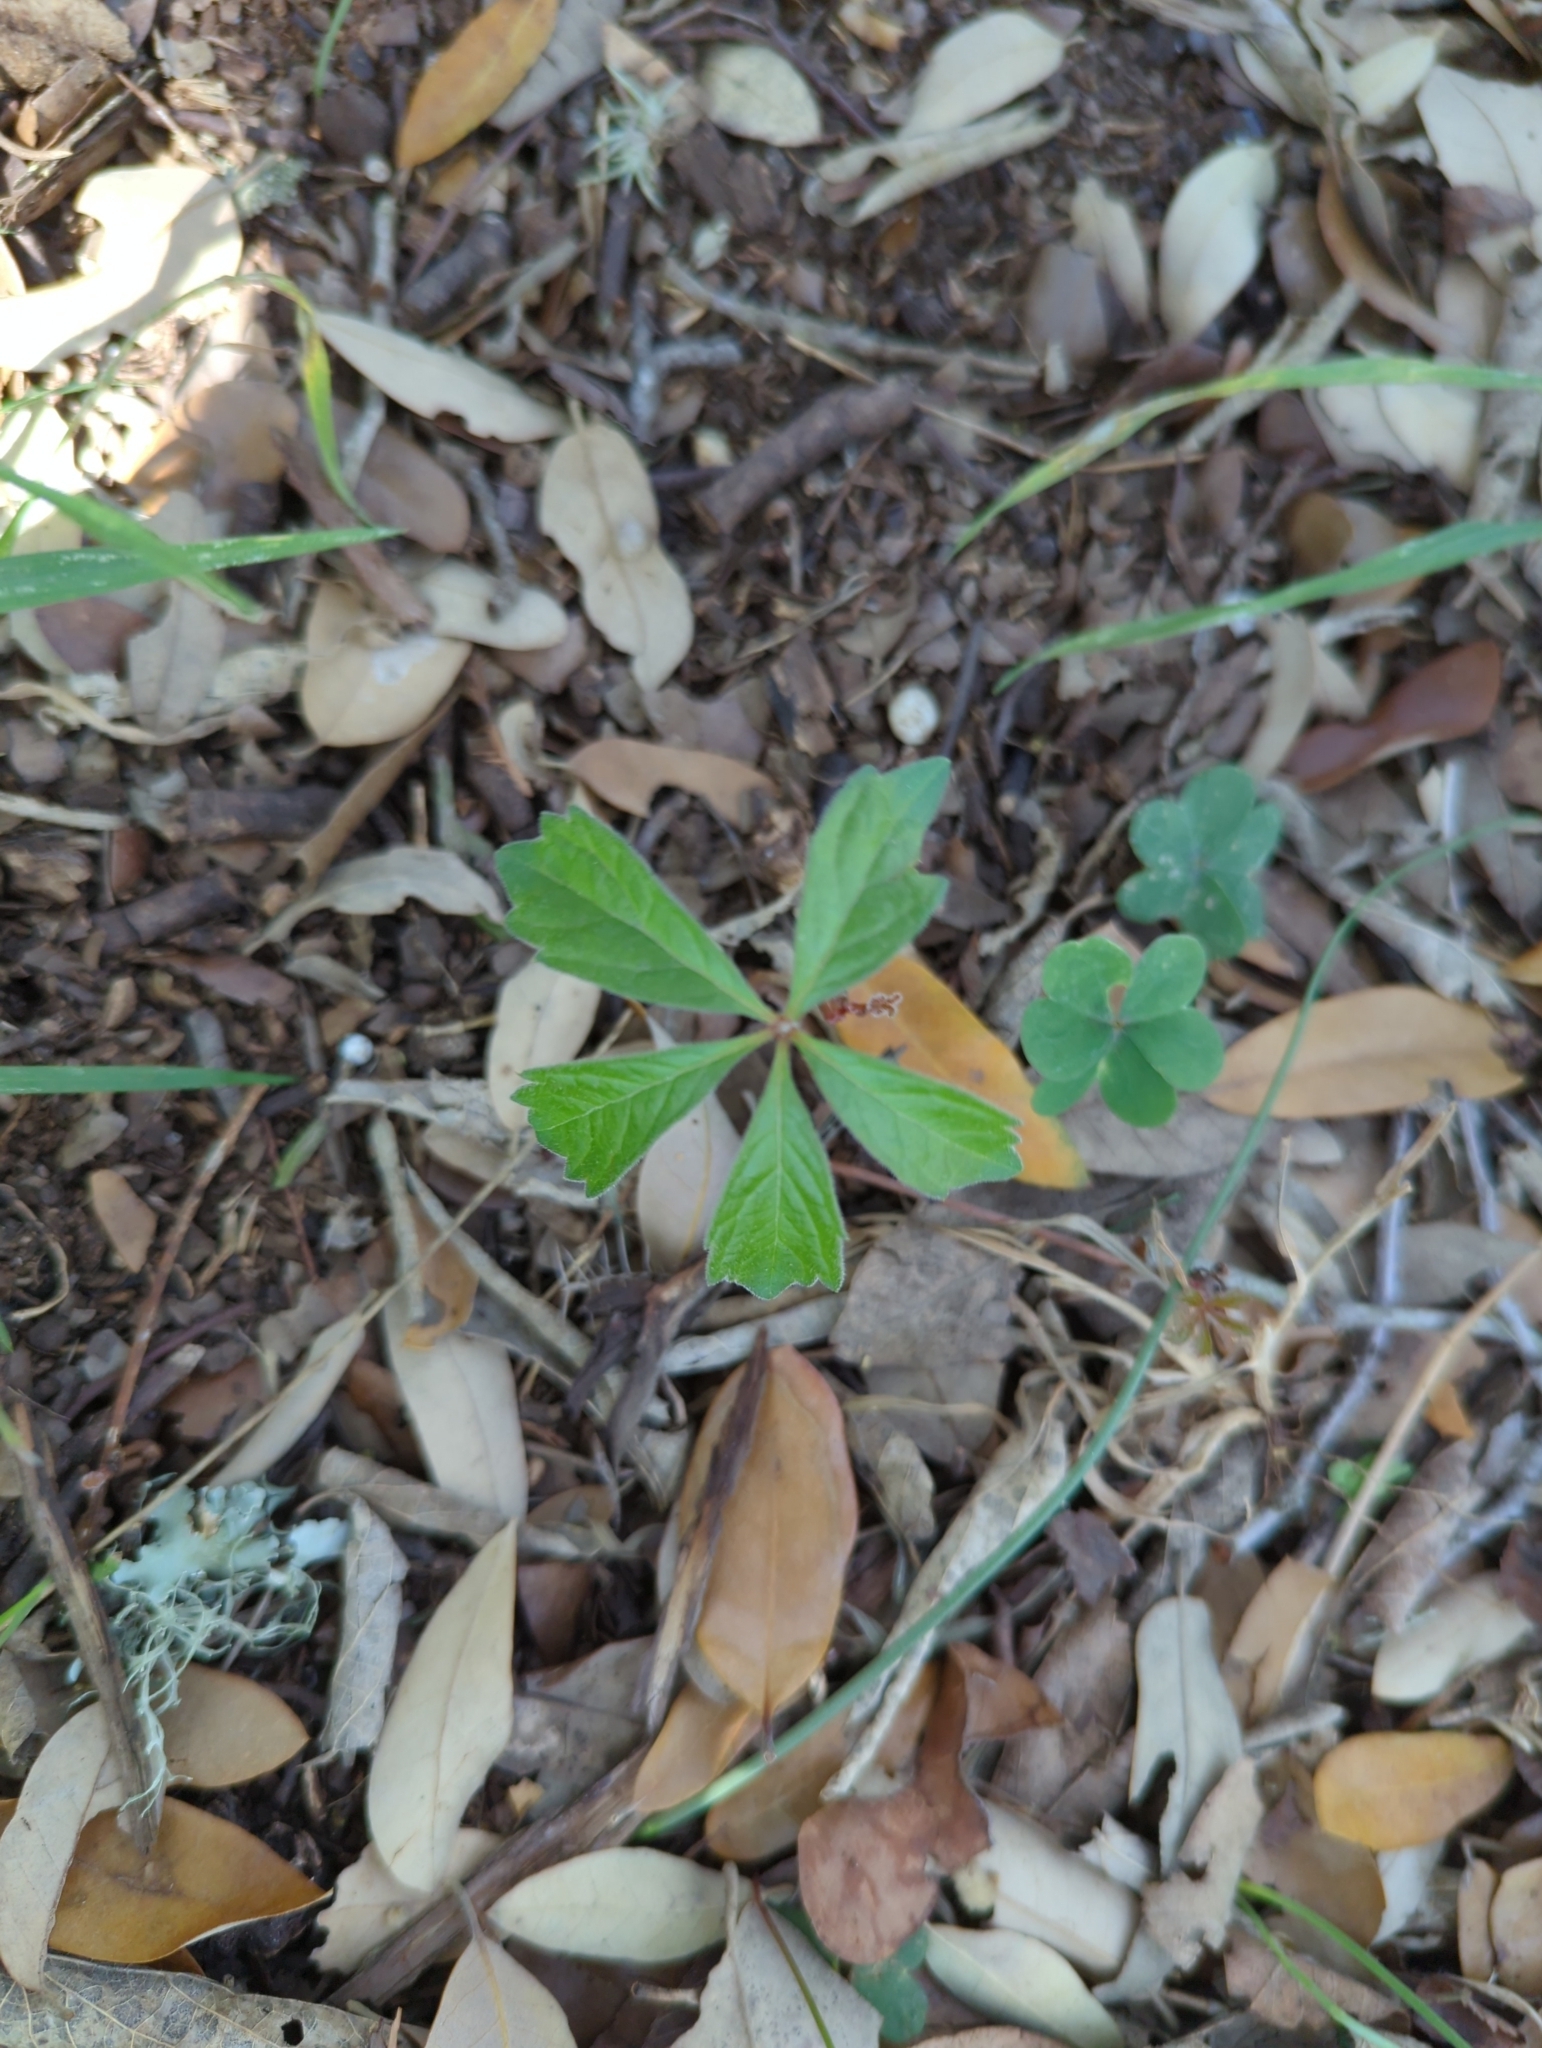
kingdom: Plantae
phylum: Tracheophyta
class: Magnoliopsida
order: Vitales
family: Vitaceae
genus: Parthenocissus
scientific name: Parthenocissus quinquefolia
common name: Virginia-creeper
